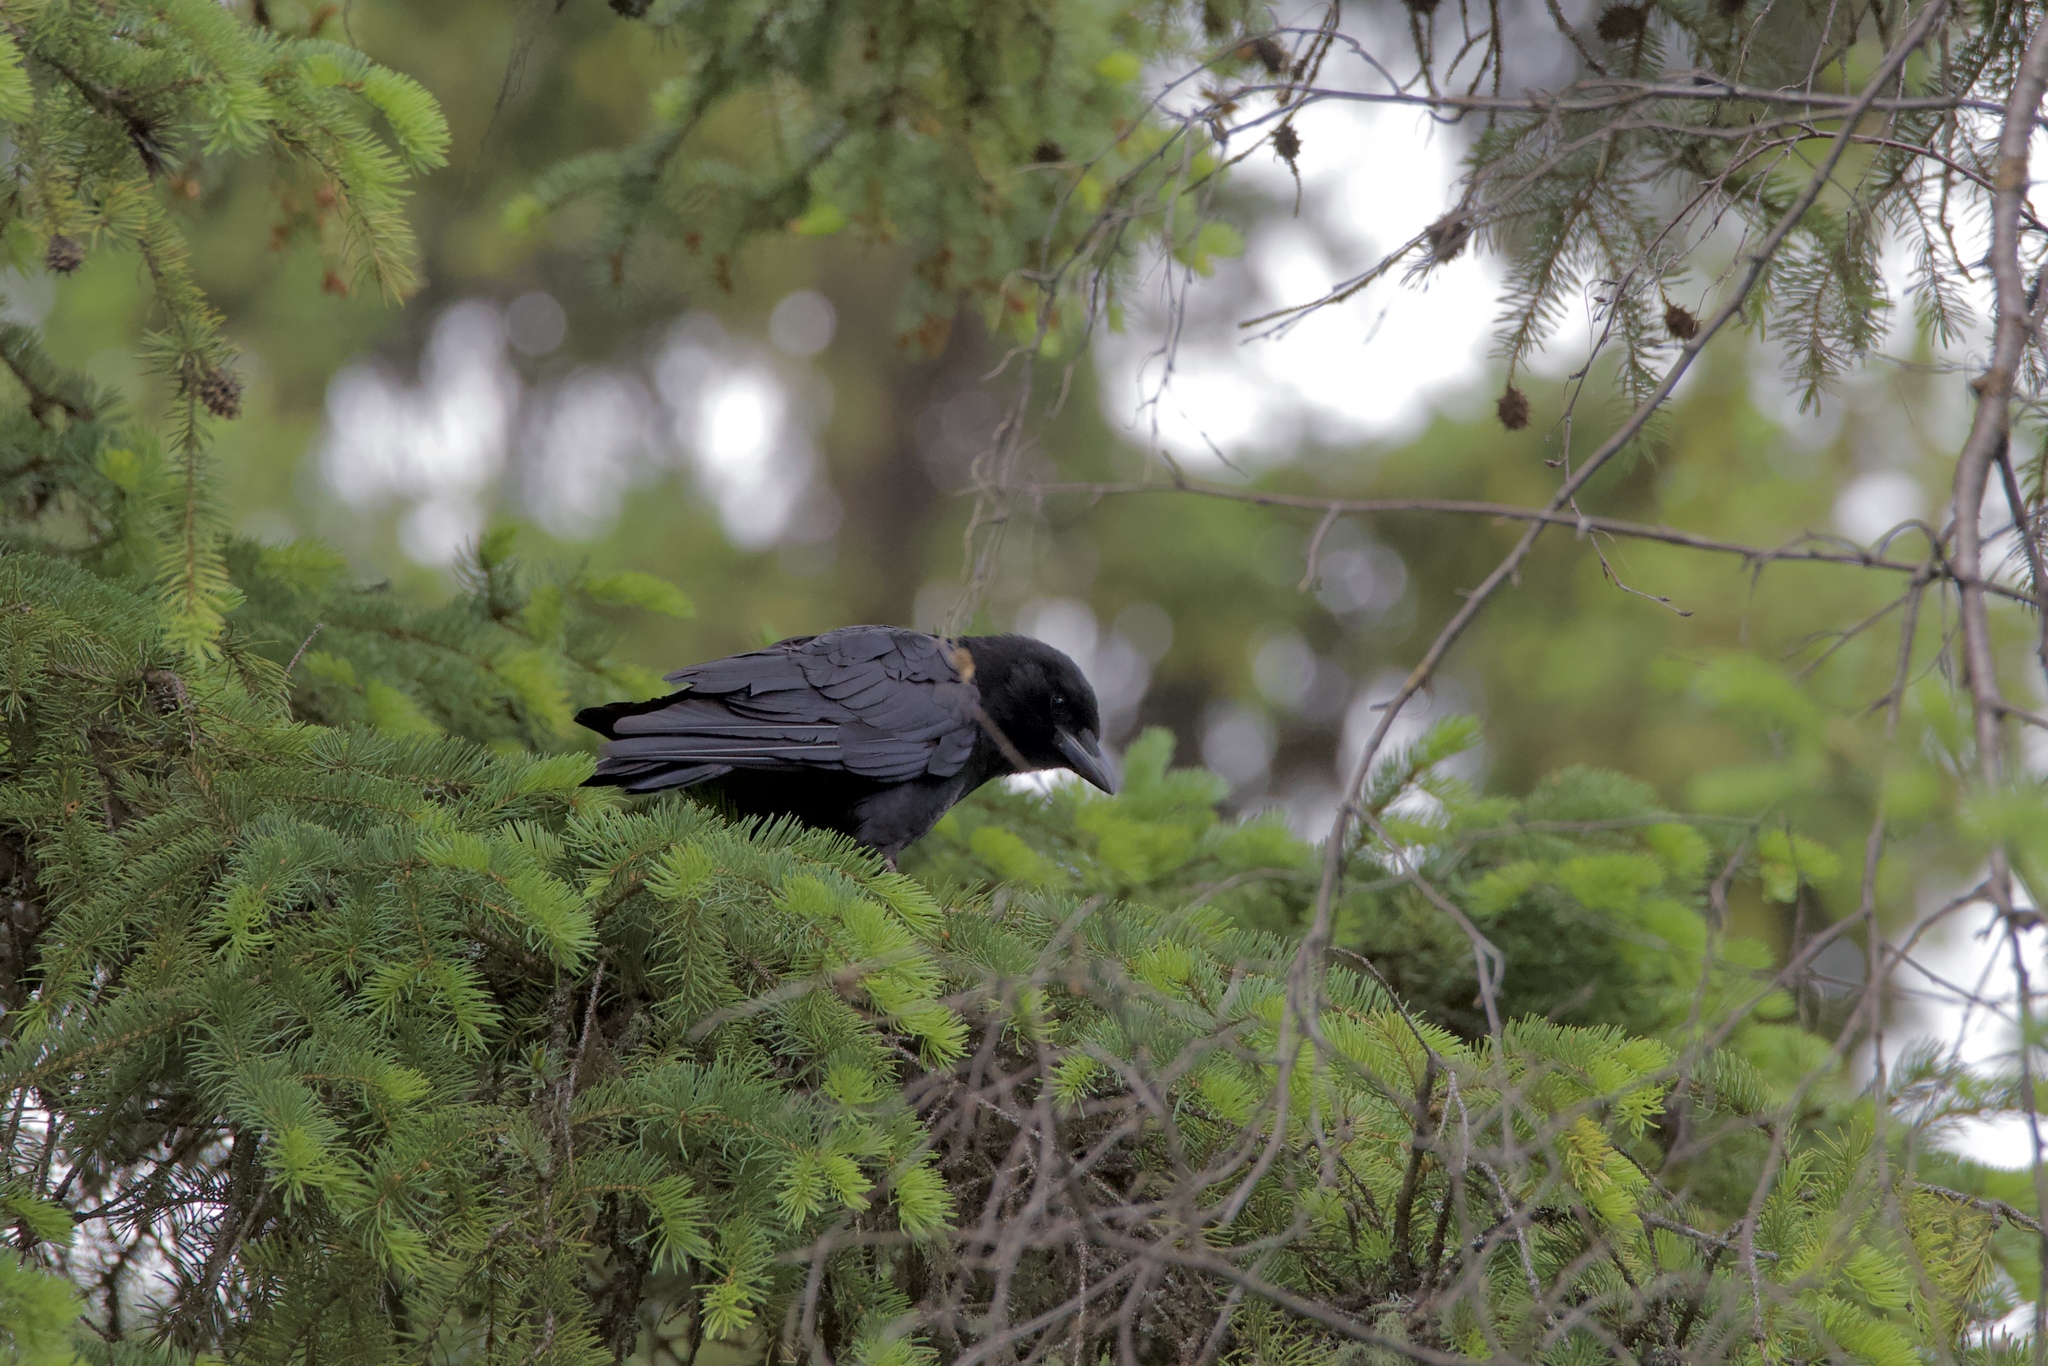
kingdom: Animalia
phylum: Chordata
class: Aves
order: Passeriformes
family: Corvidae
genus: Corvus
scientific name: Corvus brachyrhynchos
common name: American crow
